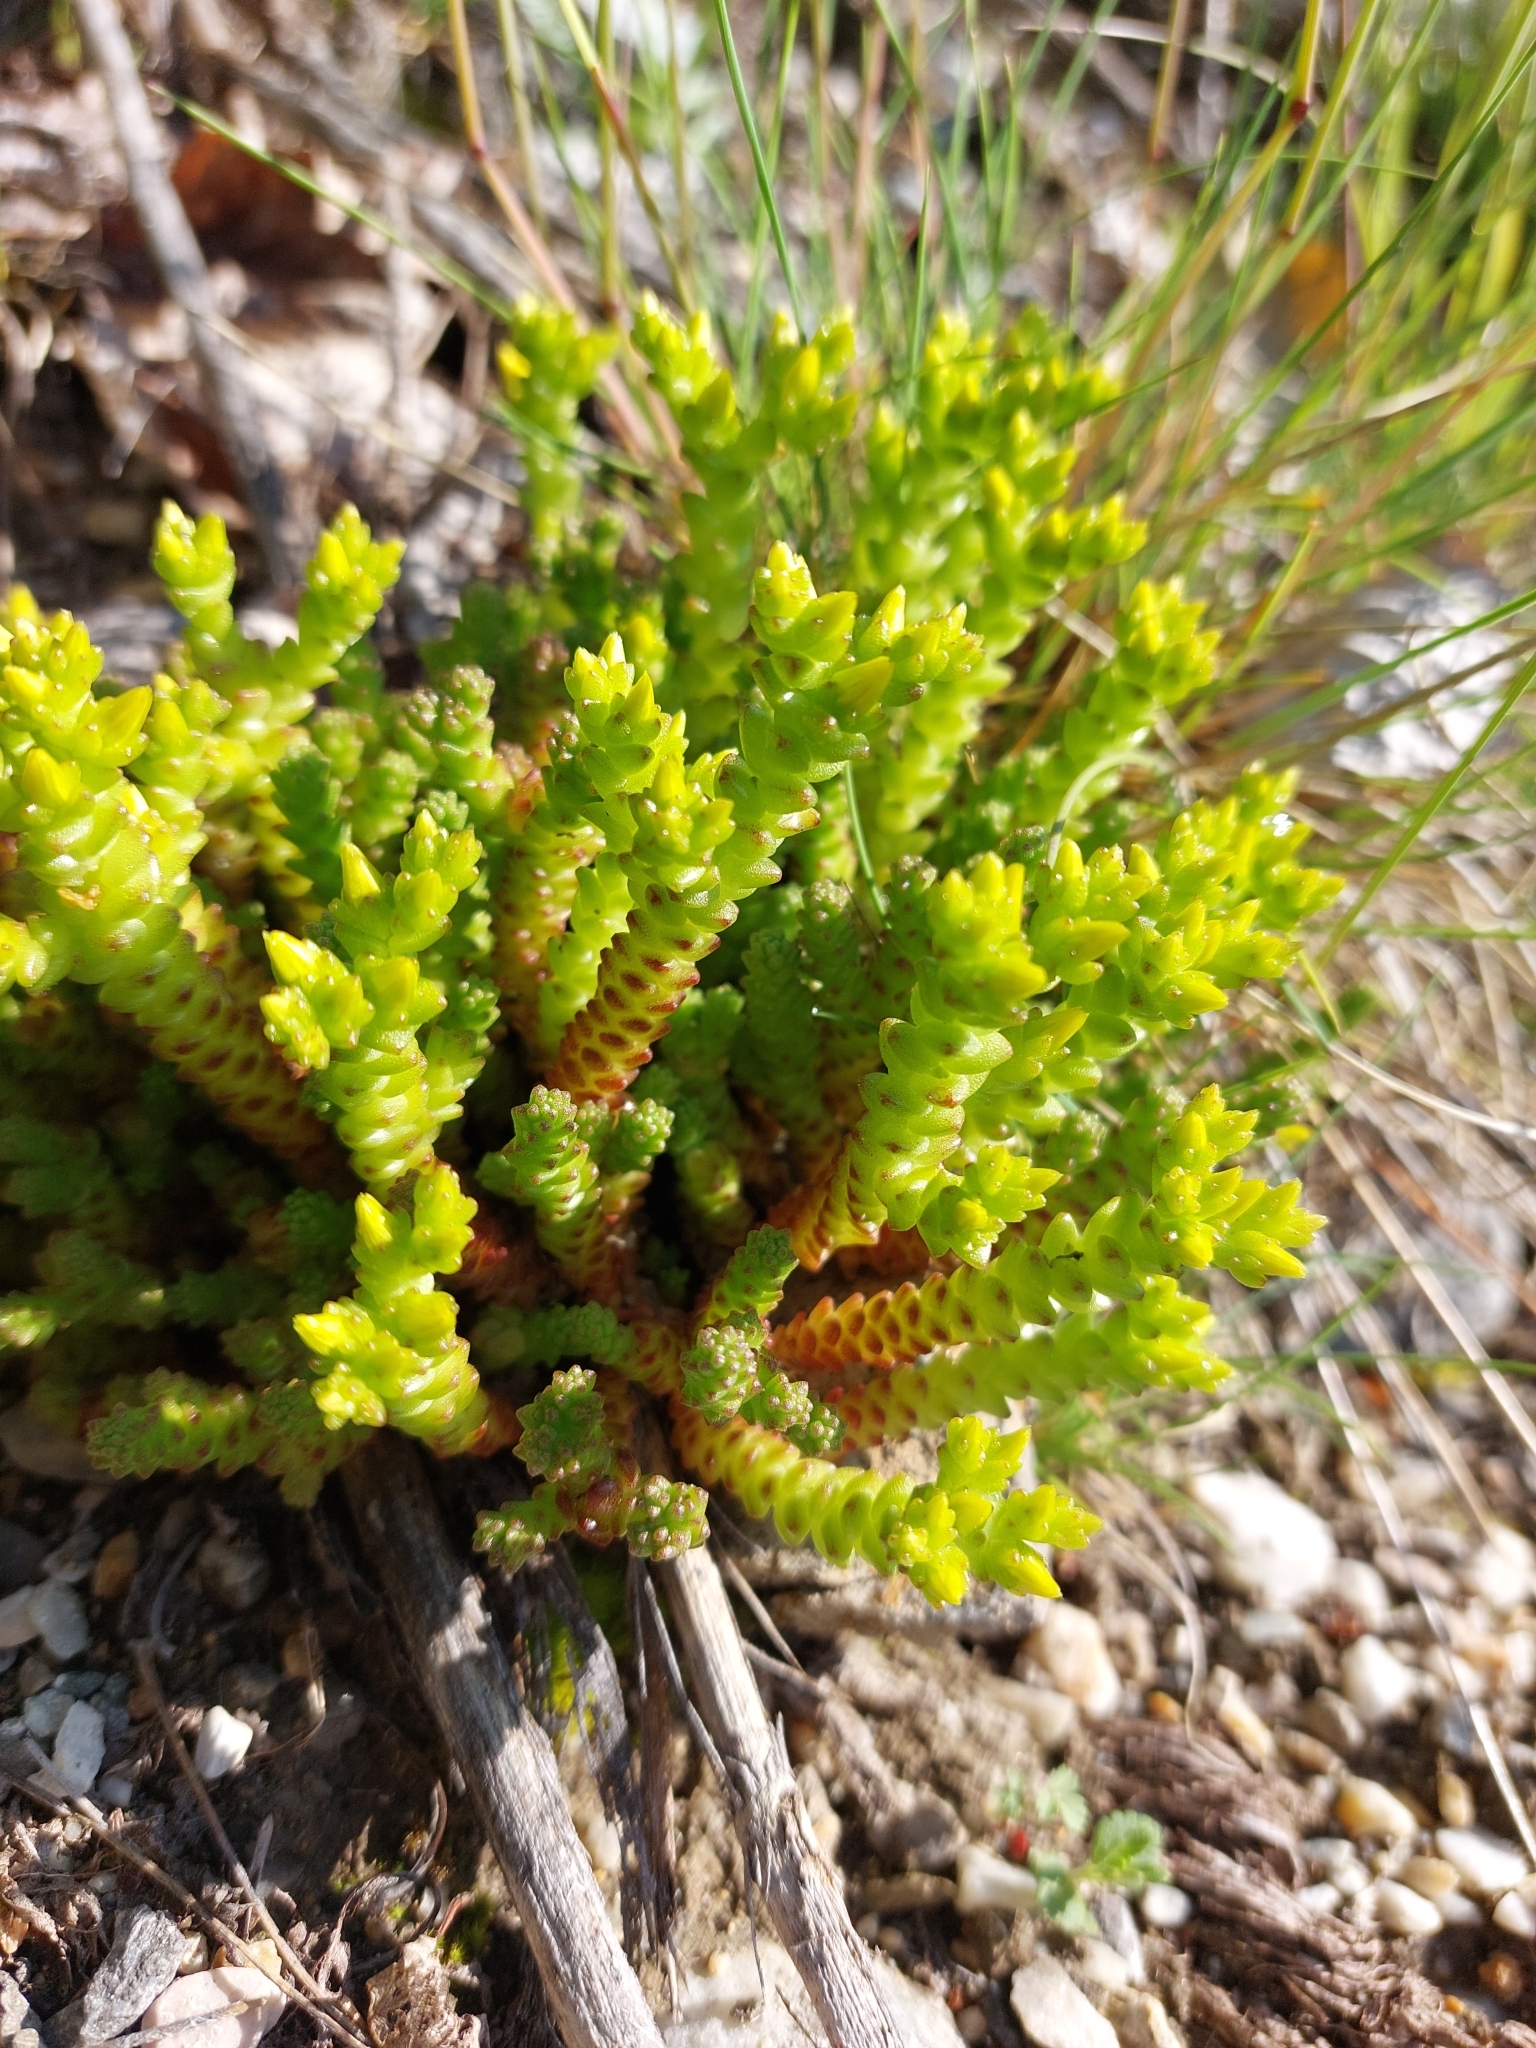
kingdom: Plantae
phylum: Tracheophyta
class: Magnoliopsida
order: Saxifragales
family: Crassulaceae
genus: Sedum
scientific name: Sedum acre
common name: Biting stonecrop
